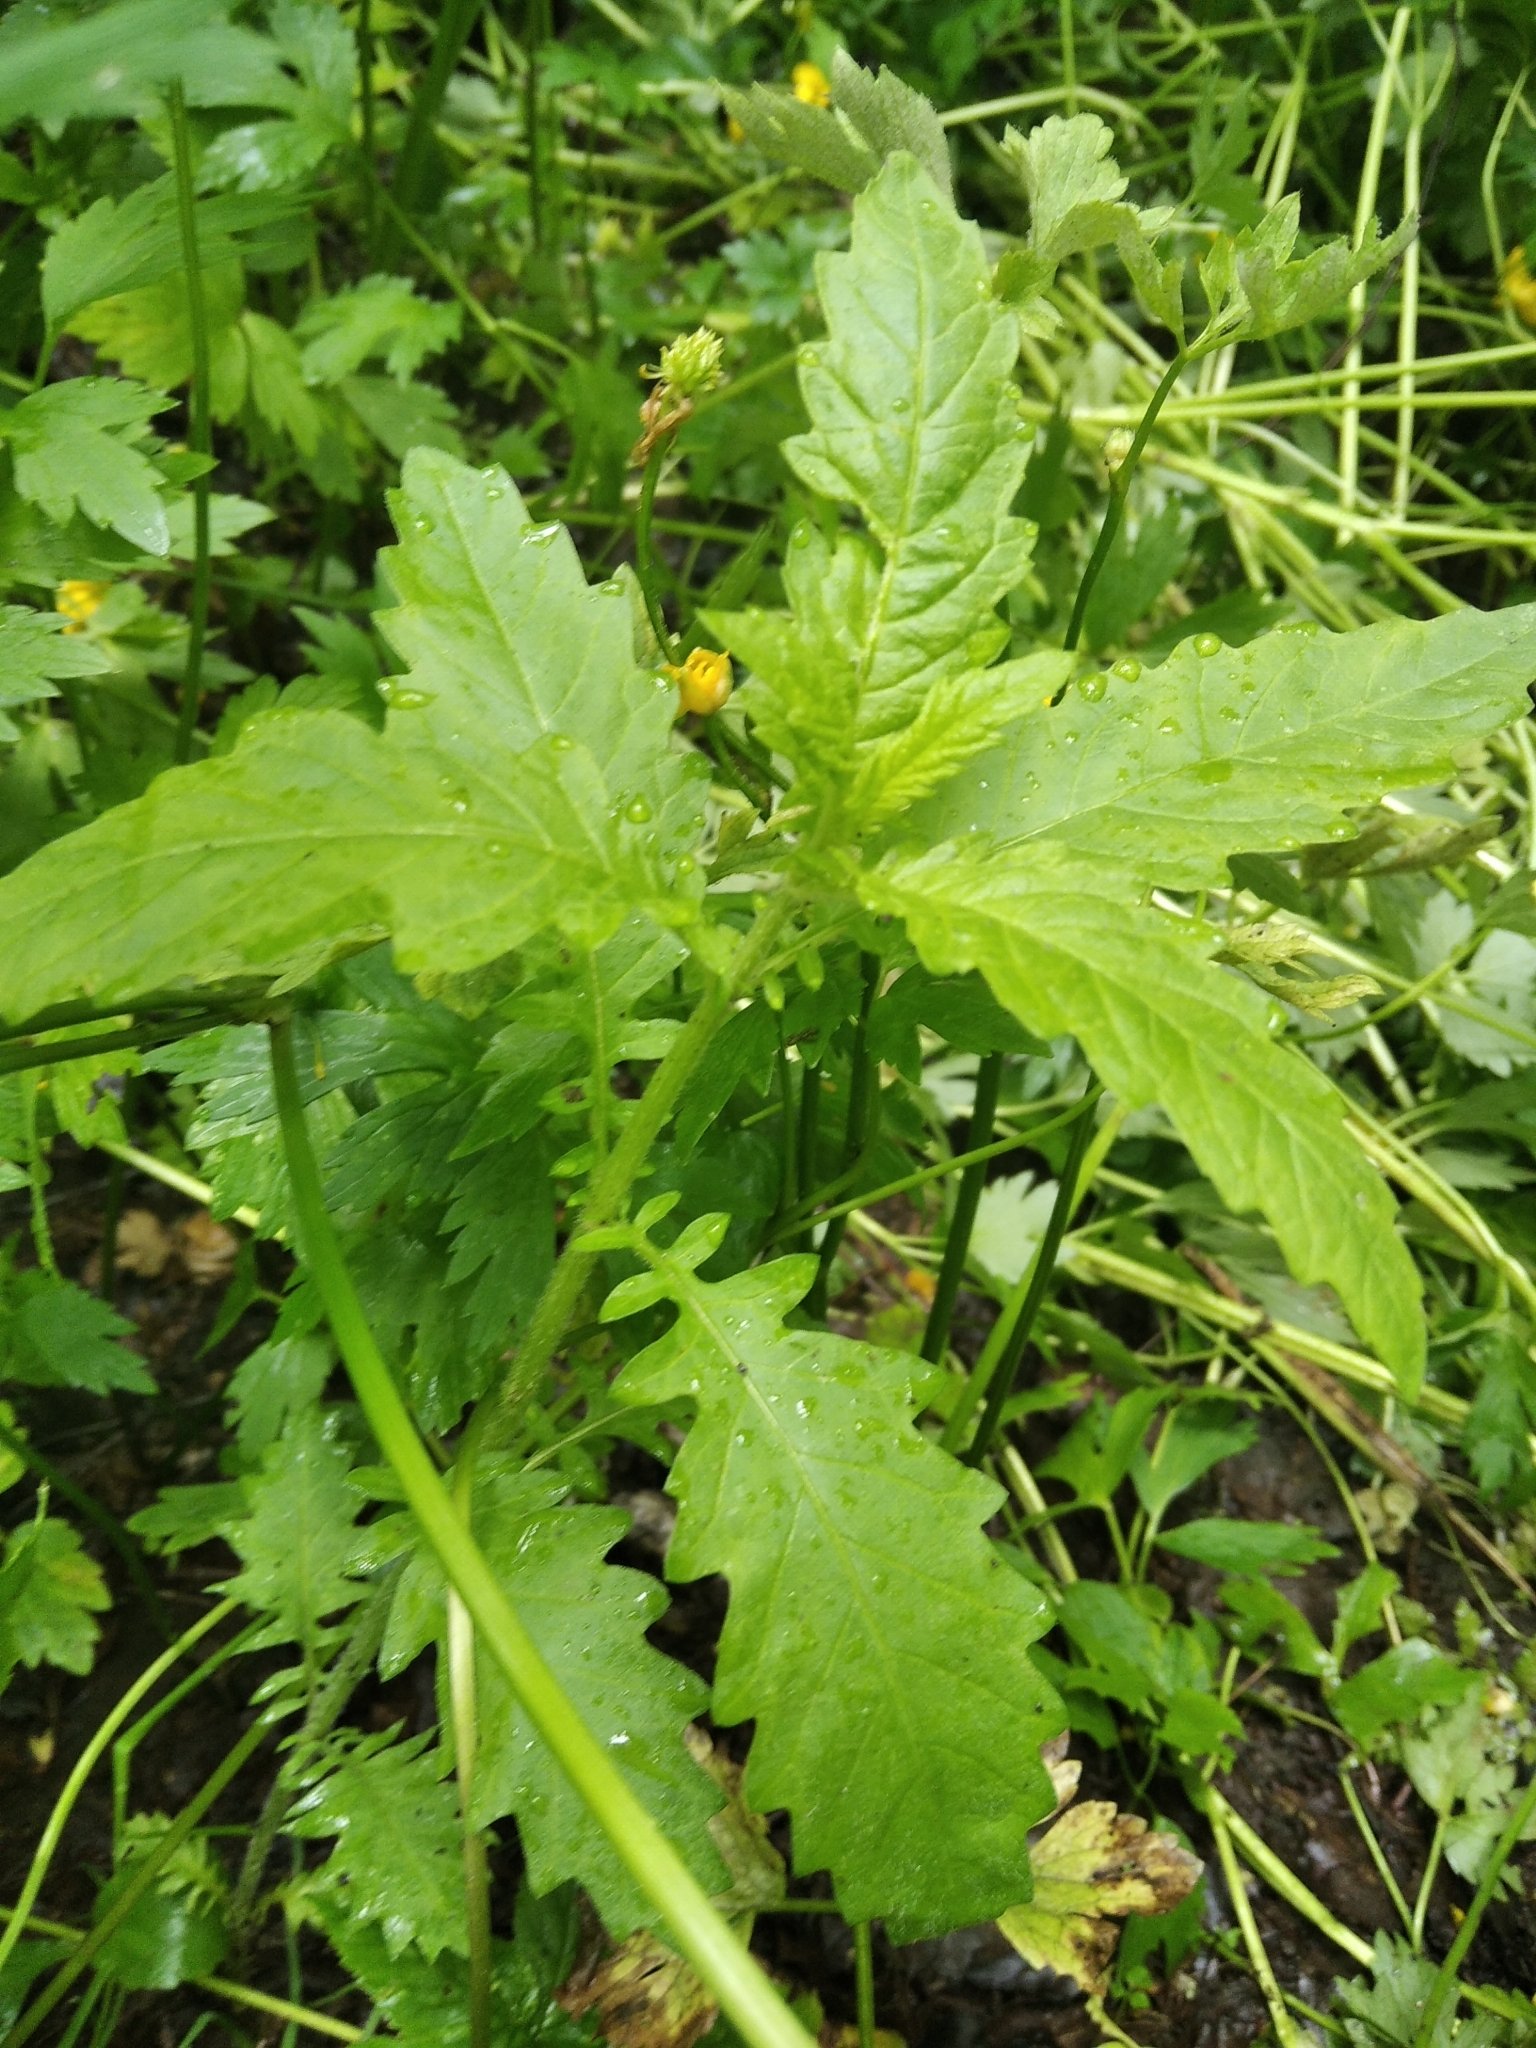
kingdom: Plantae
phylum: Tracheophyta
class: Magnoliopsida
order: Lamiales
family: Lamiaceae
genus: Lycopus
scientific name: Lycopus europaeus
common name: European bugleweed
